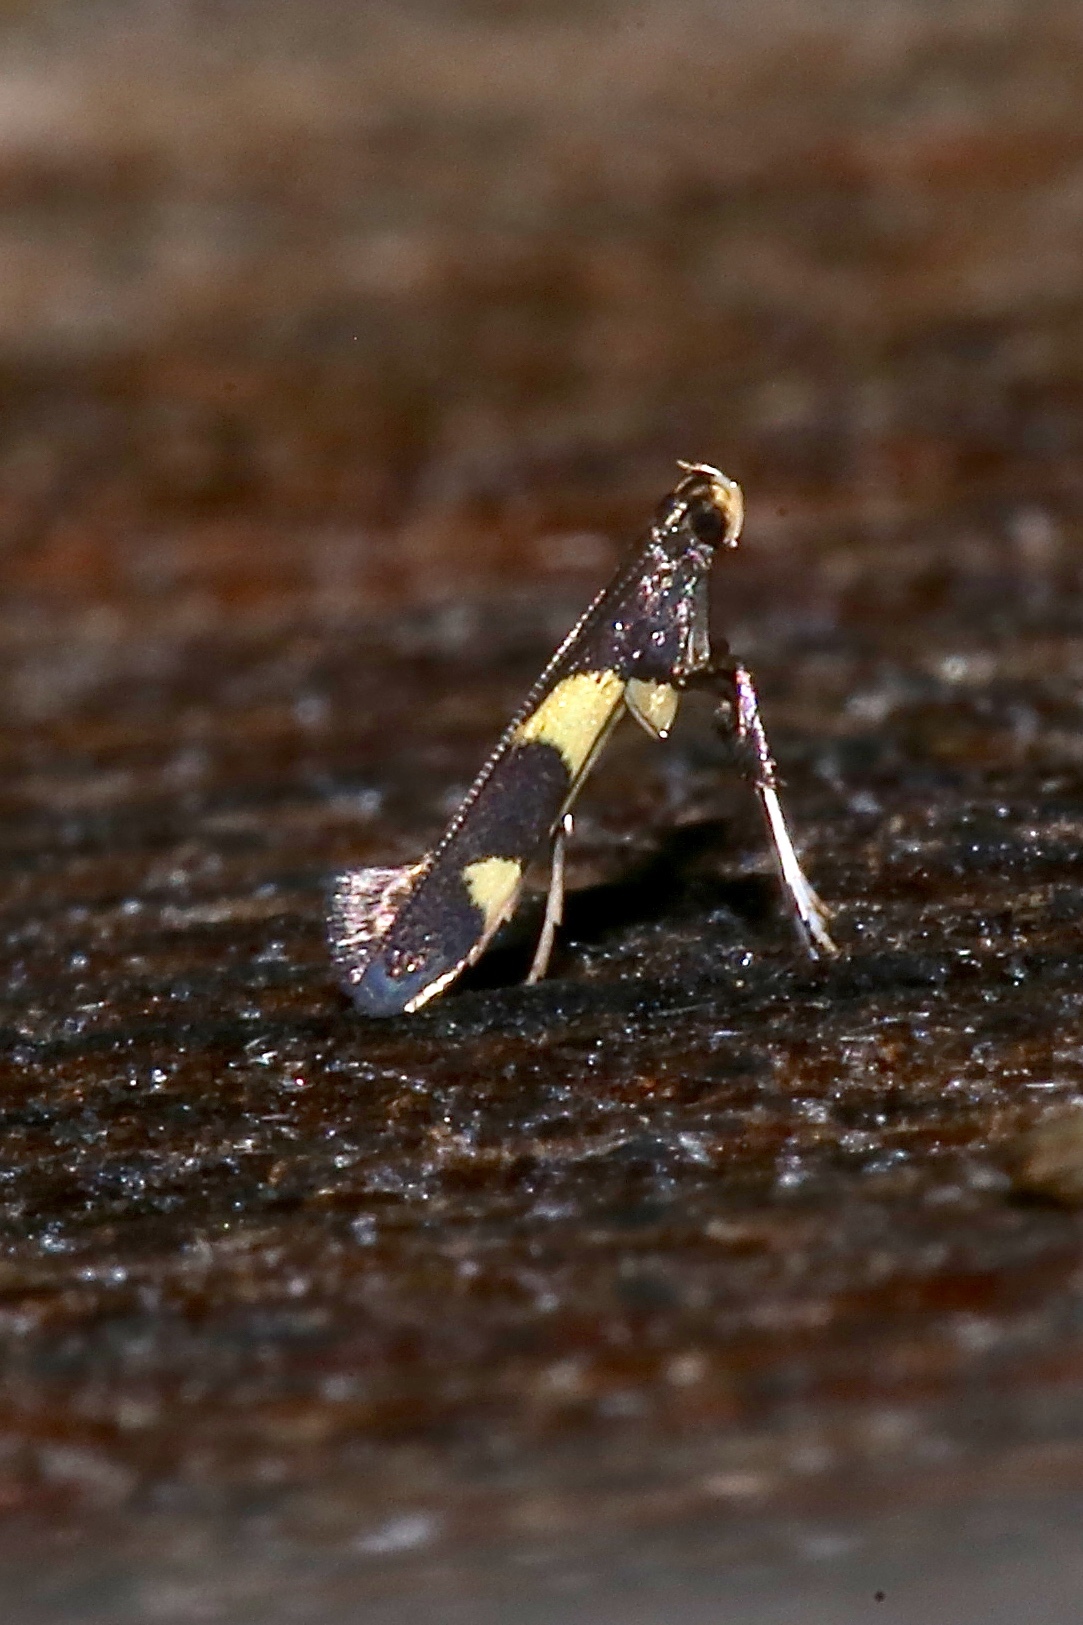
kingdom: Animalia
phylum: Arthropoda
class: Insecta
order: Lepidoptera
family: Gracillariidae
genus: Caloptilia
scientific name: Caloptilia cornusella
